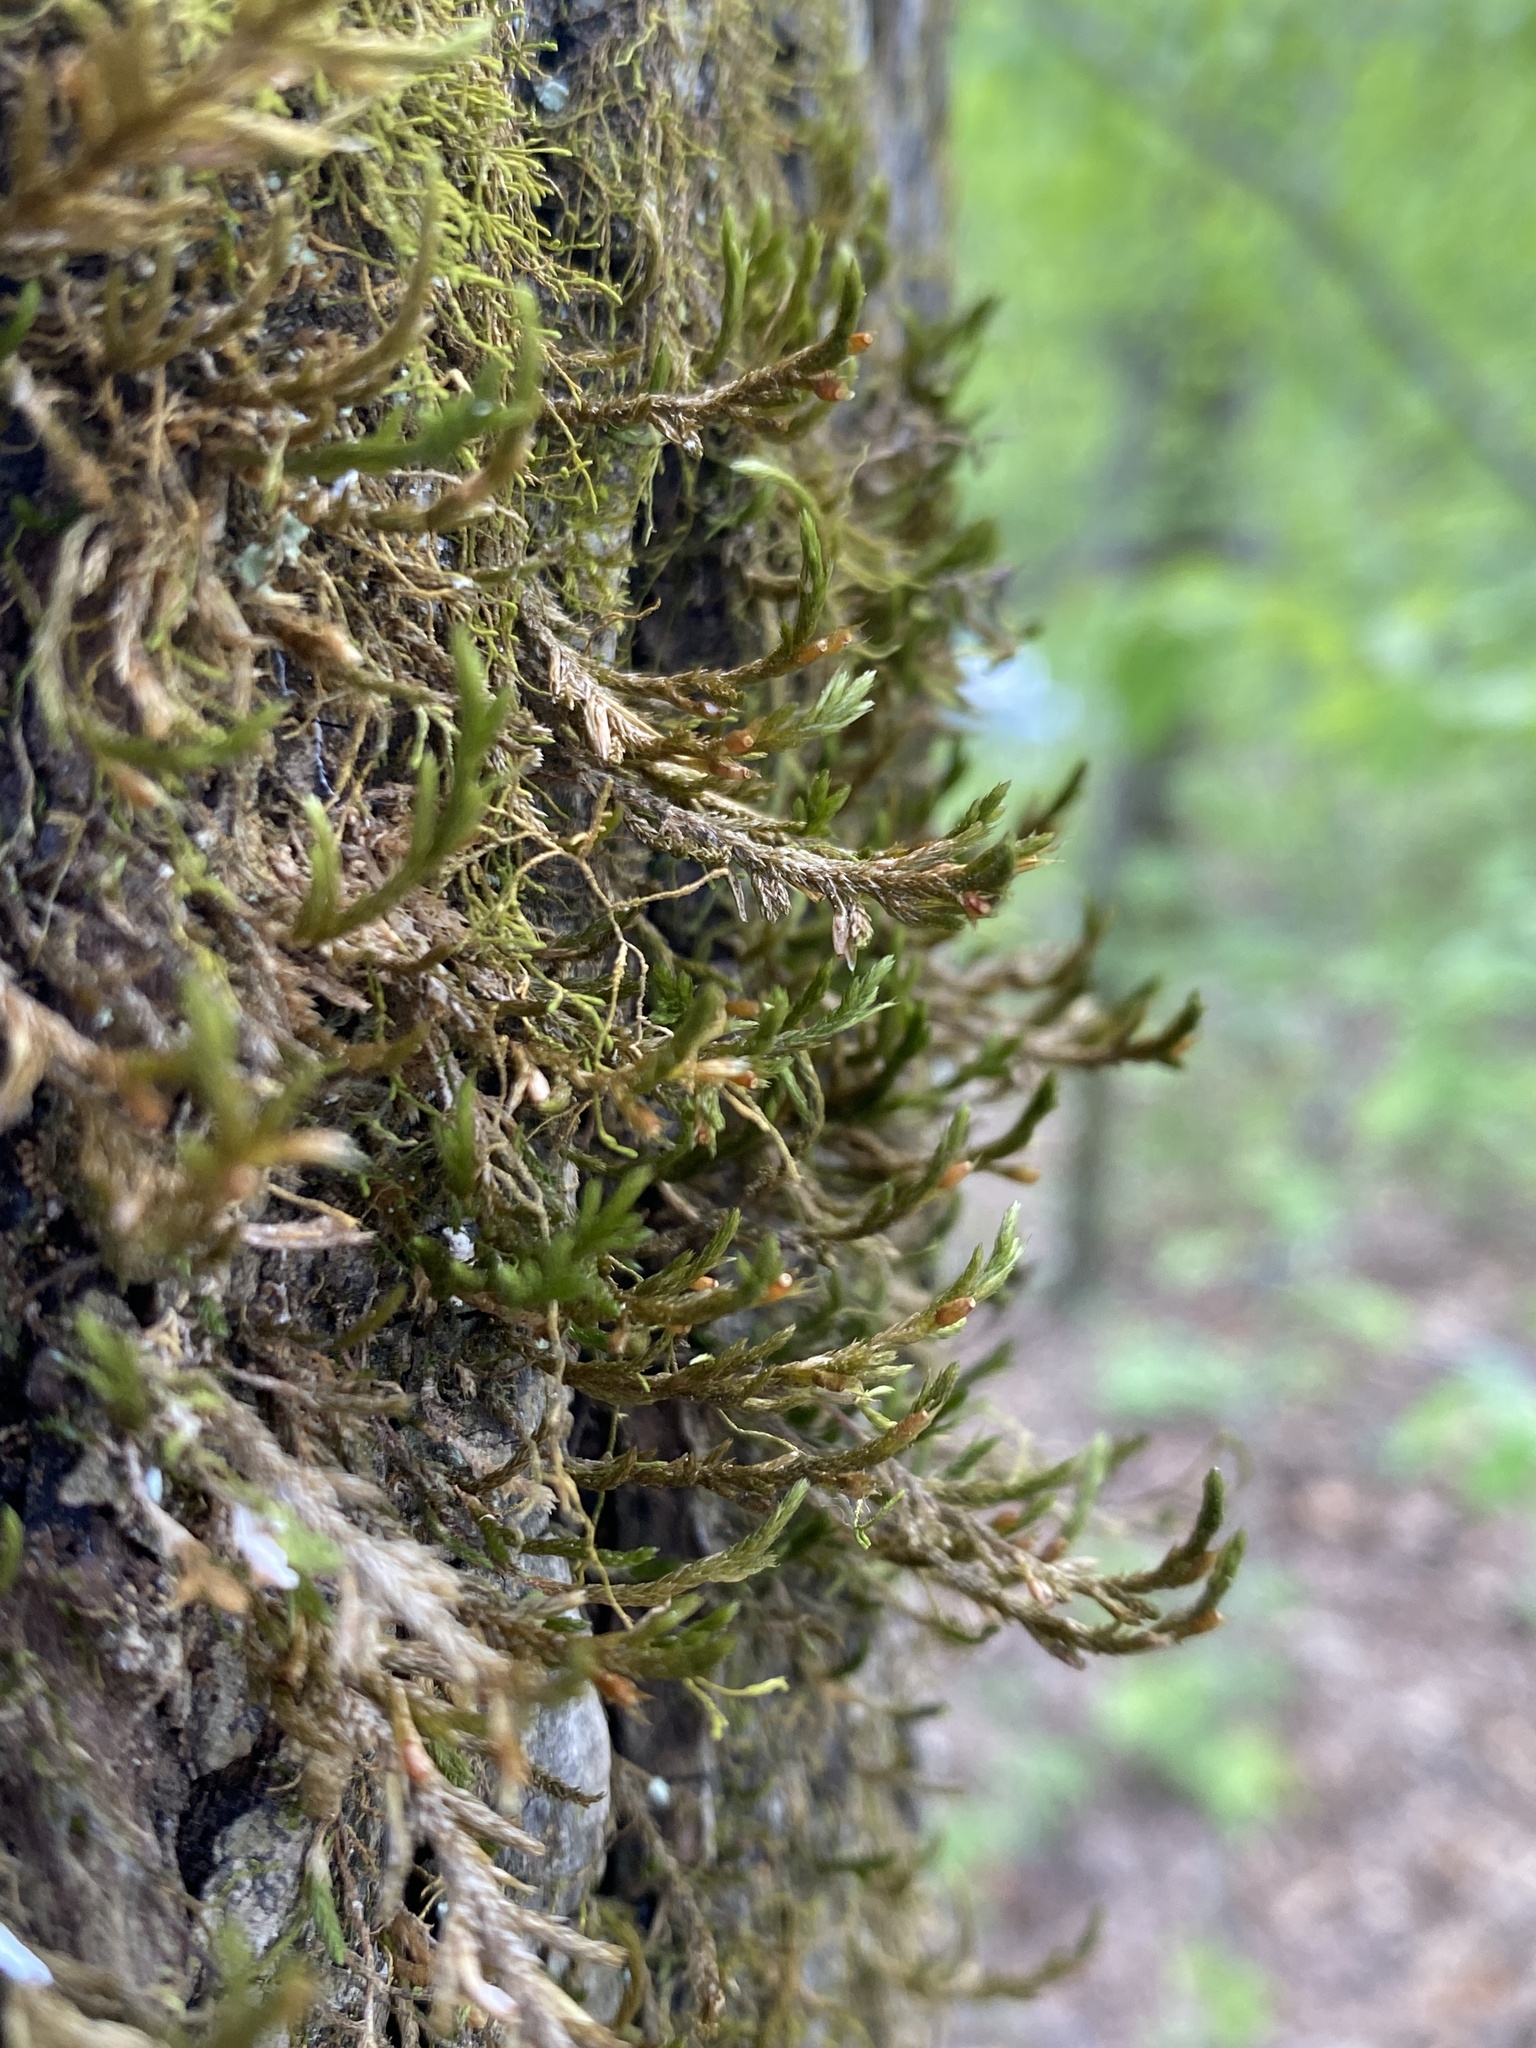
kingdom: Plantae
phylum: Bryophyta
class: Bryopsida
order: Hypnales
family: Neckeraceae
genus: Forsstroemia
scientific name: Forsstroemia trichomitria
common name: Fan moss
